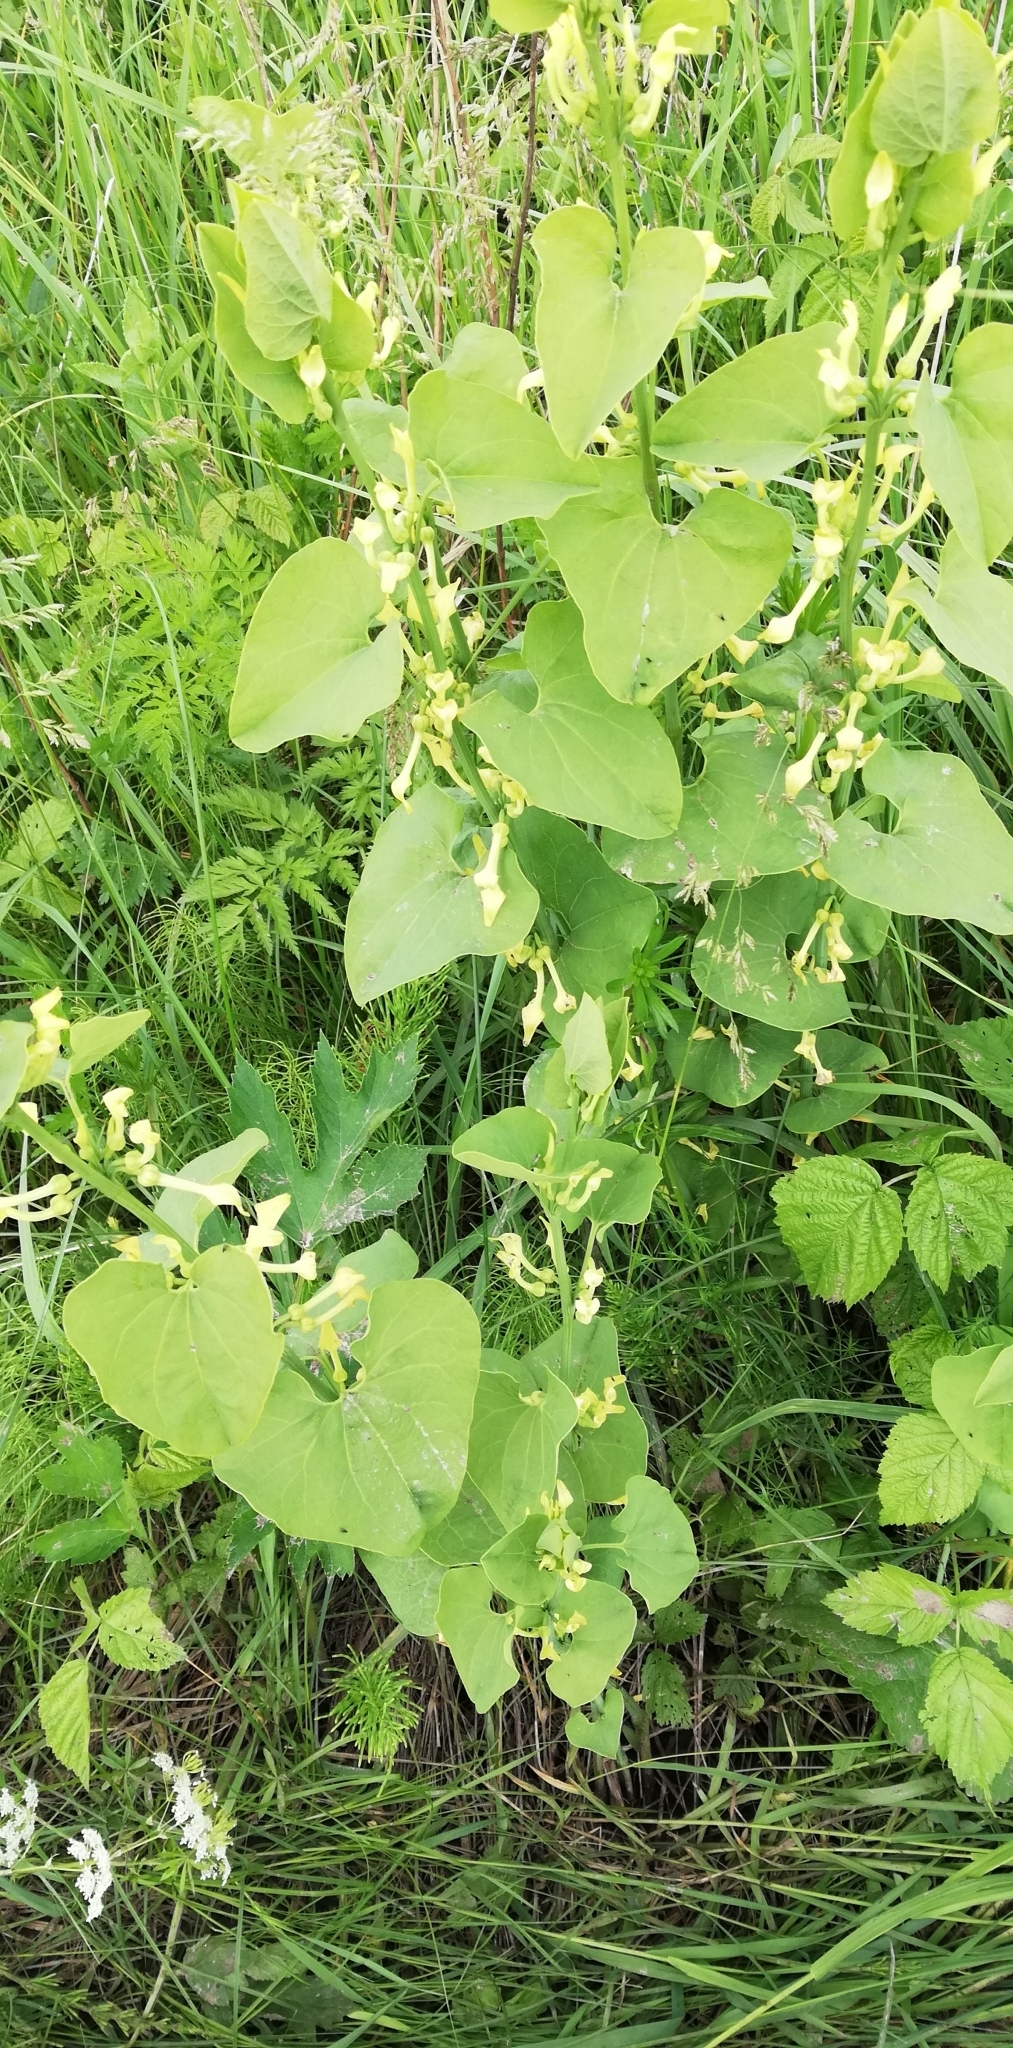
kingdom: Plantae
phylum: Tracheophyta
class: Magnoliopsida
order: Piperales
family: Aristolochiaceae
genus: Aristolochia
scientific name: Aristolochia clematitis
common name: Birthwort
